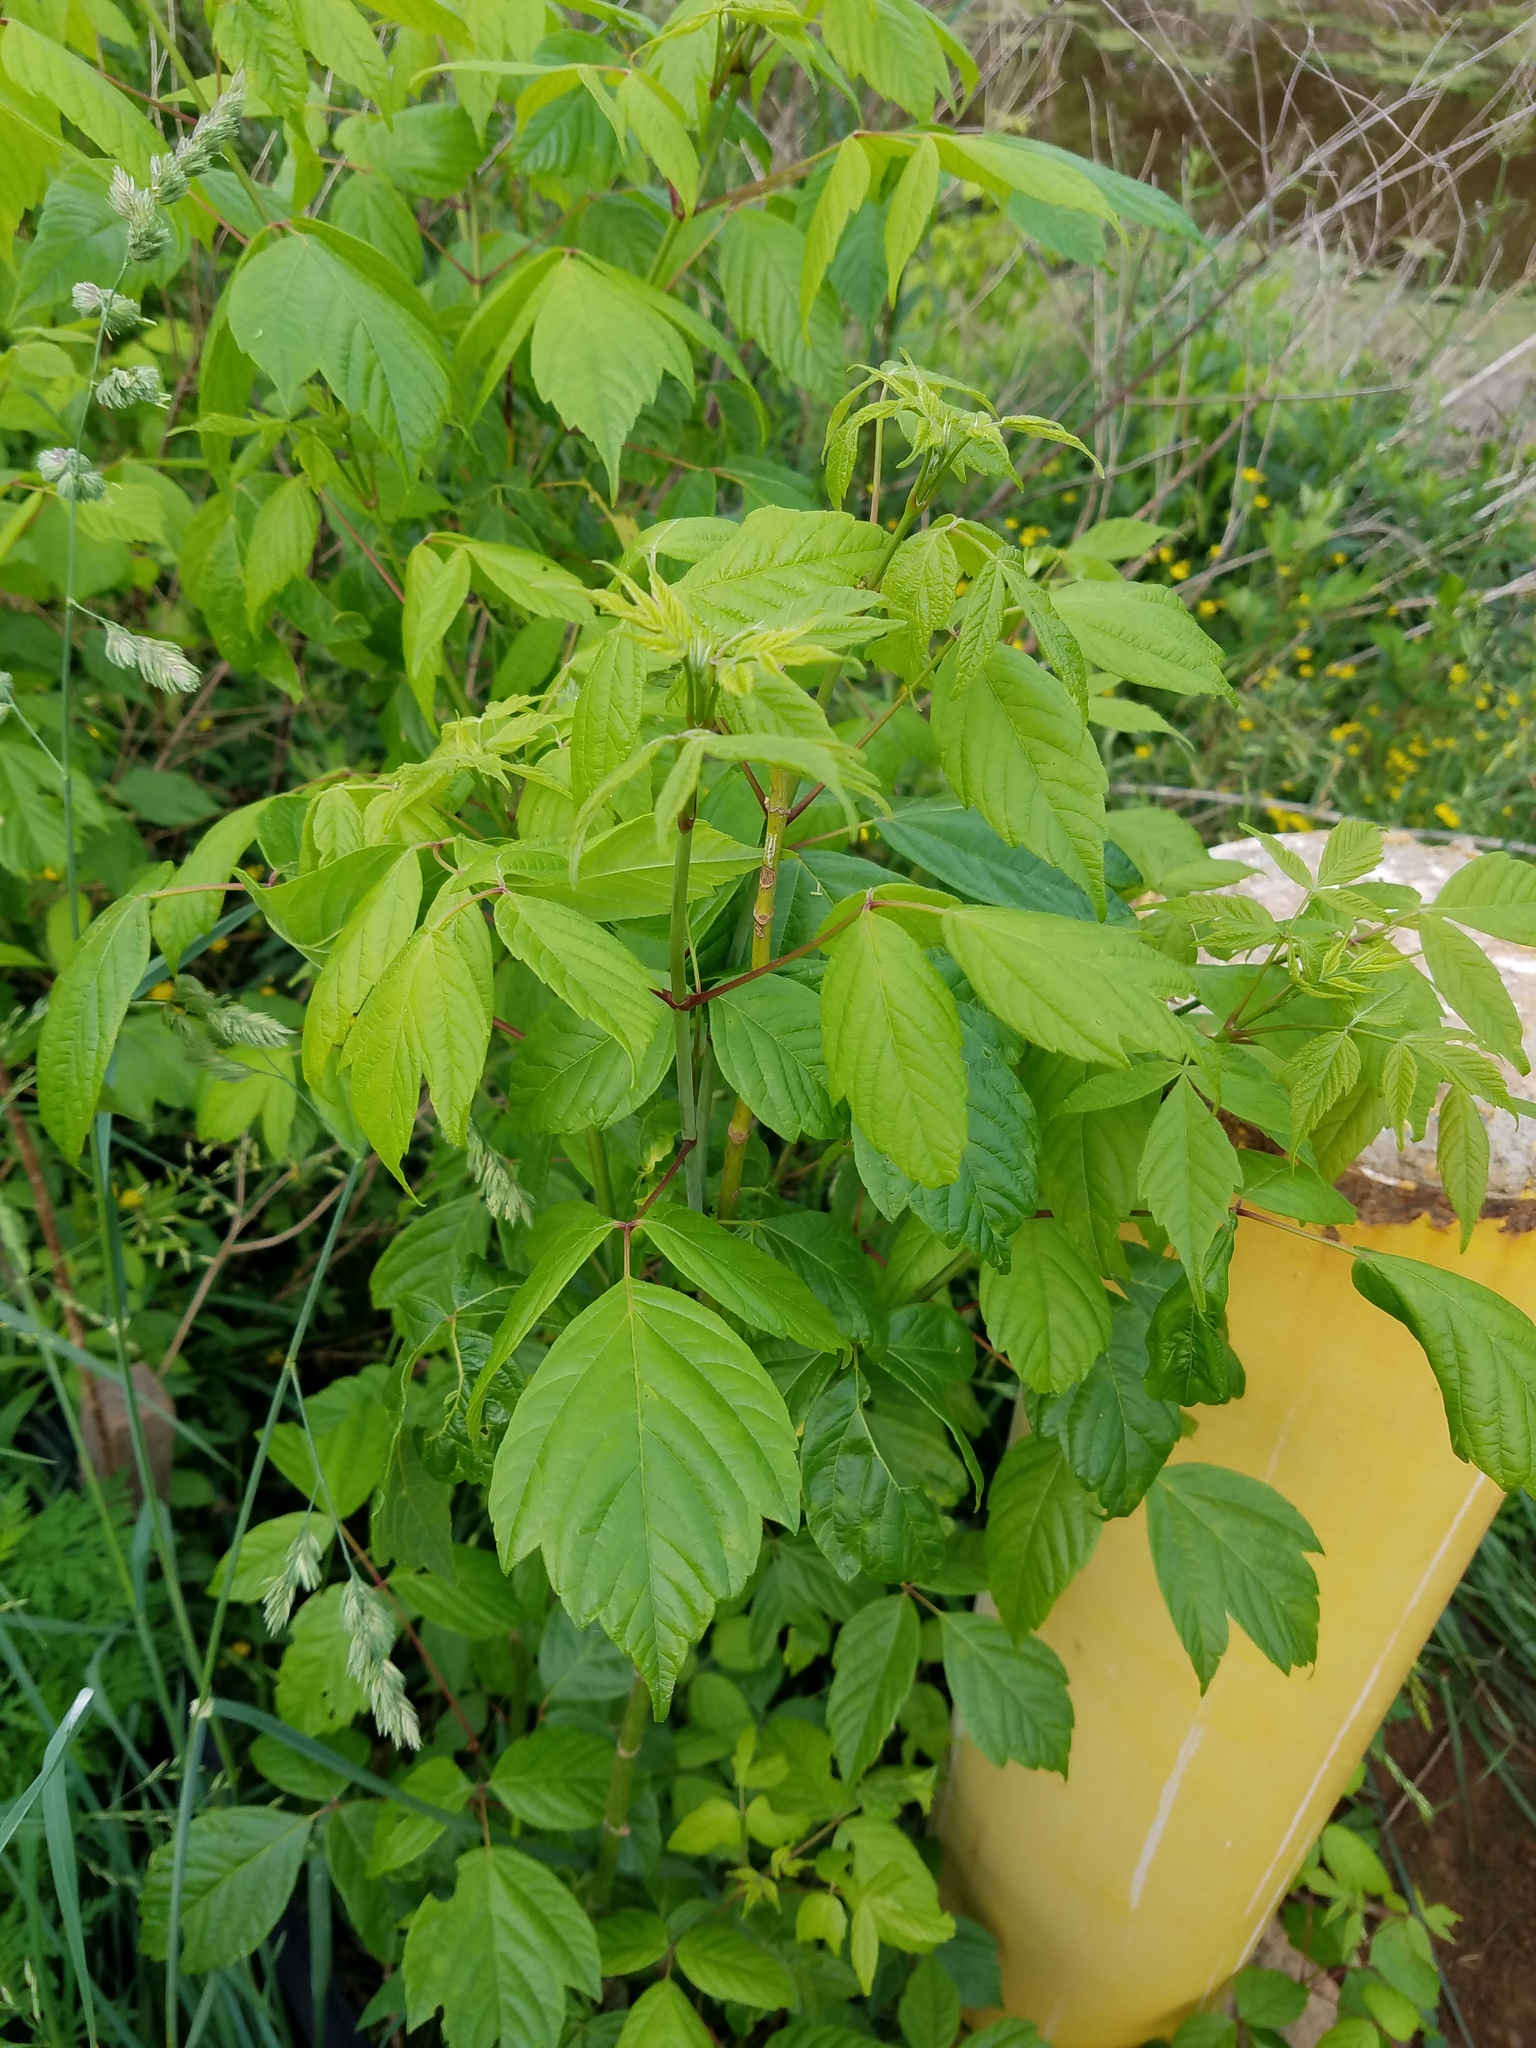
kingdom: Plantae
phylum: Tracheophyta
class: Magnoliopsida
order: Sapindales
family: Sapindaceae
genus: Acer
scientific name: Acer negundo
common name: Ashleaf maple
